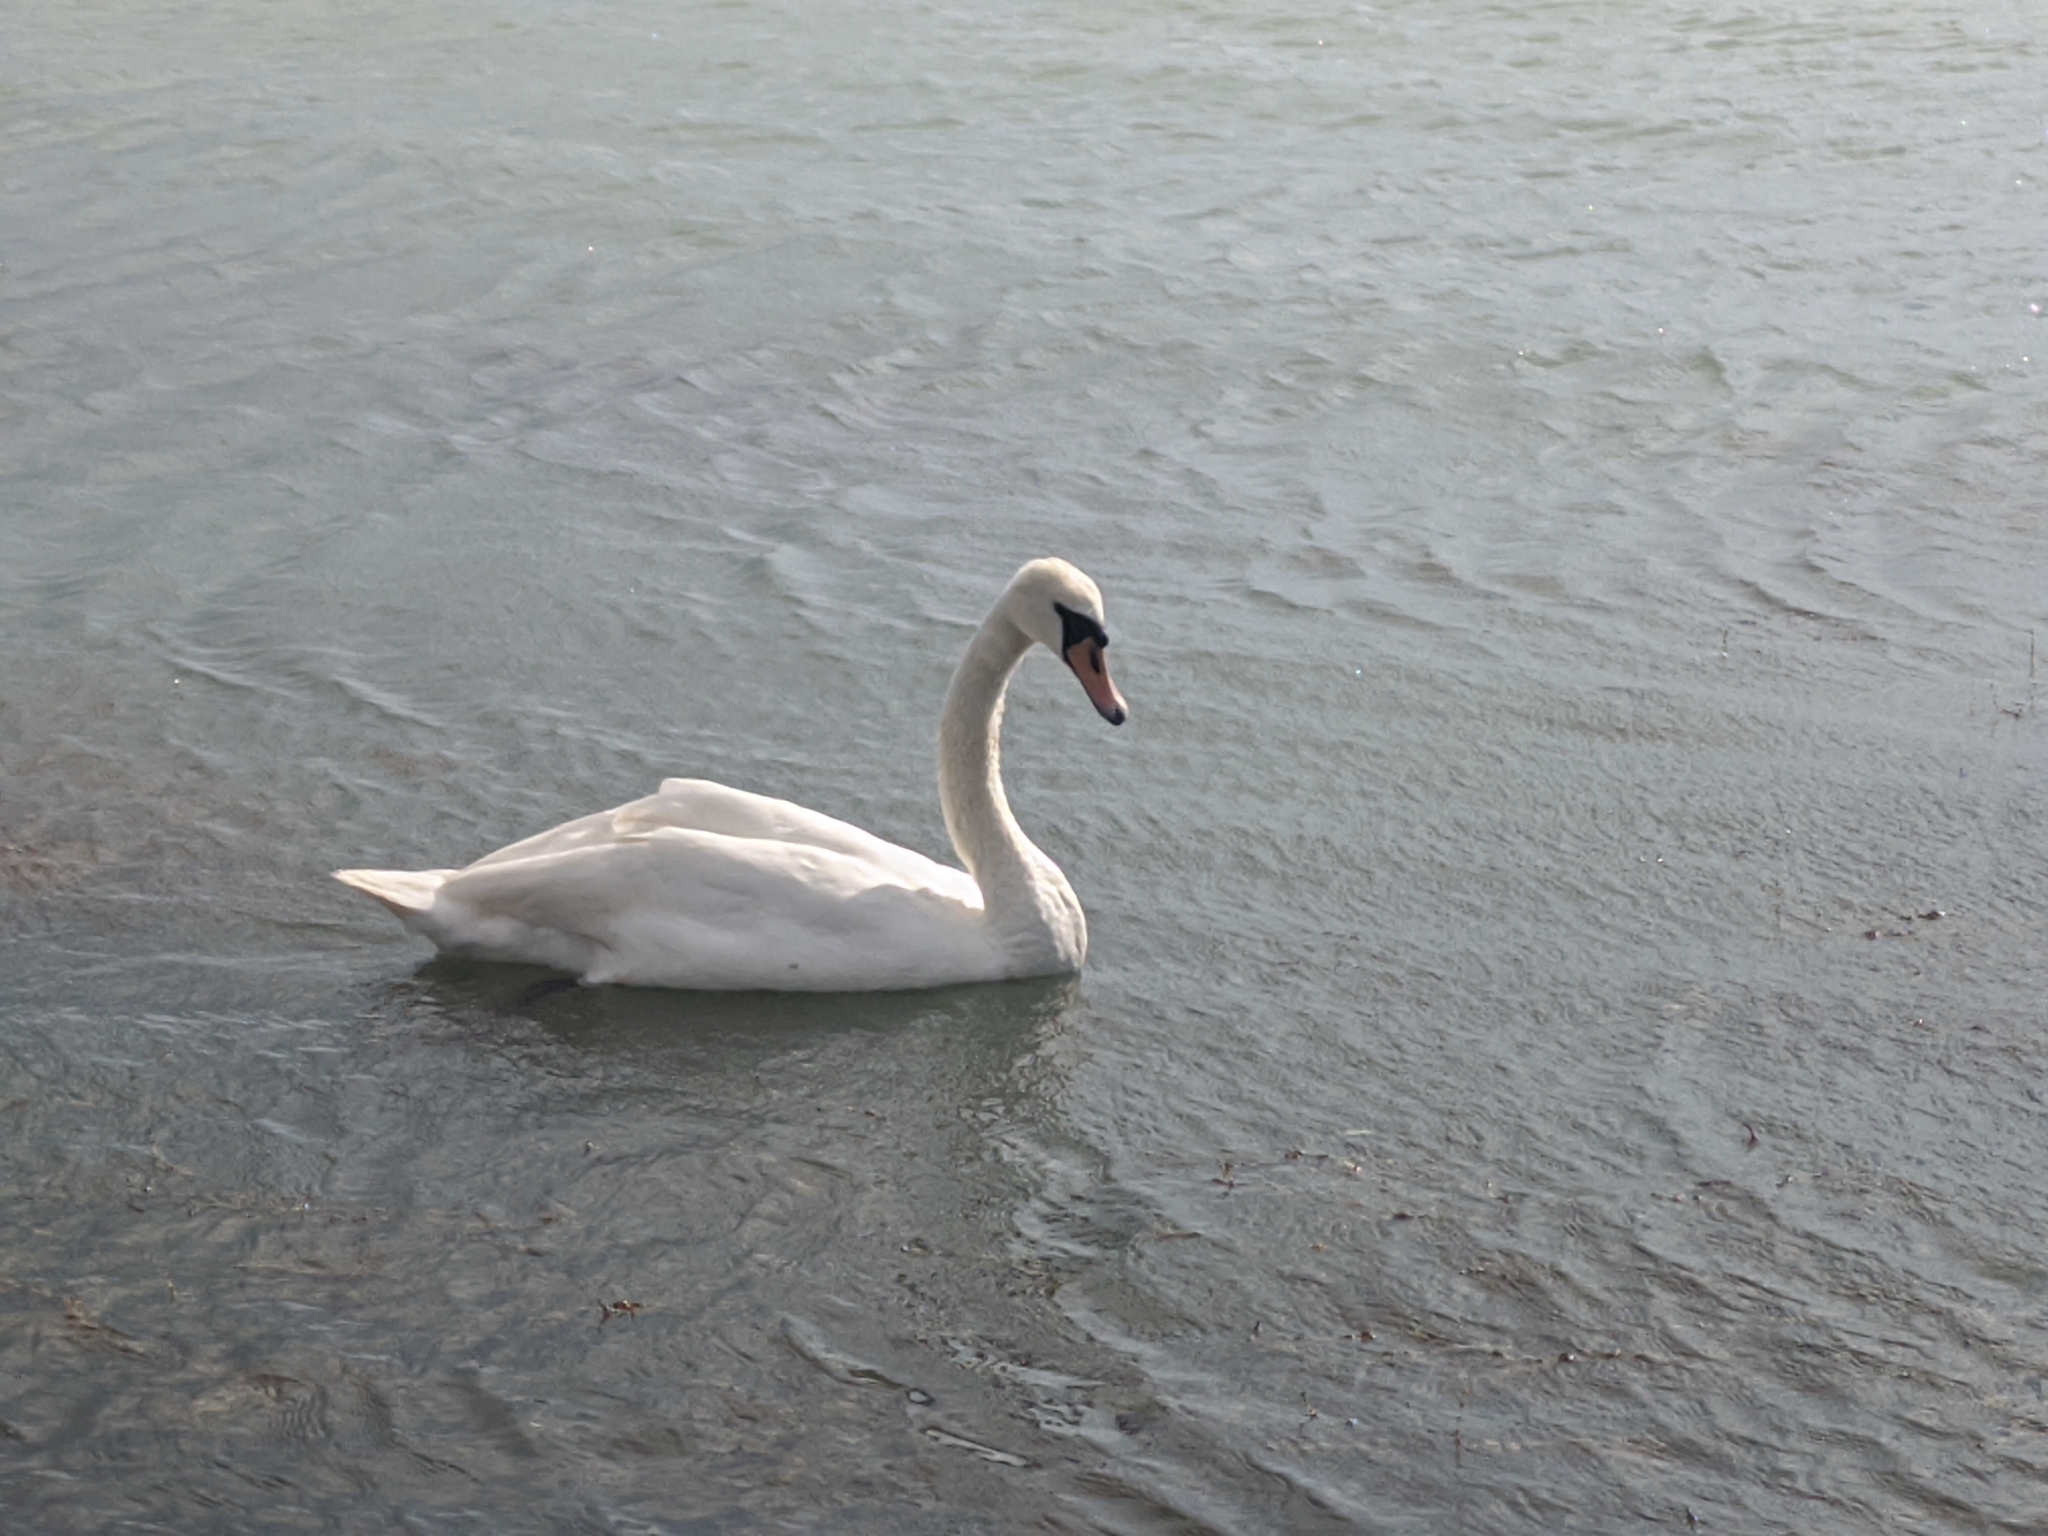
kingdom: Animalia
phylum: Chordata
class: Aves
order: Anseriformes
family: Anatidae
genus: Cygnus
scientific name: Cygnus olor
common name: Mute swan
